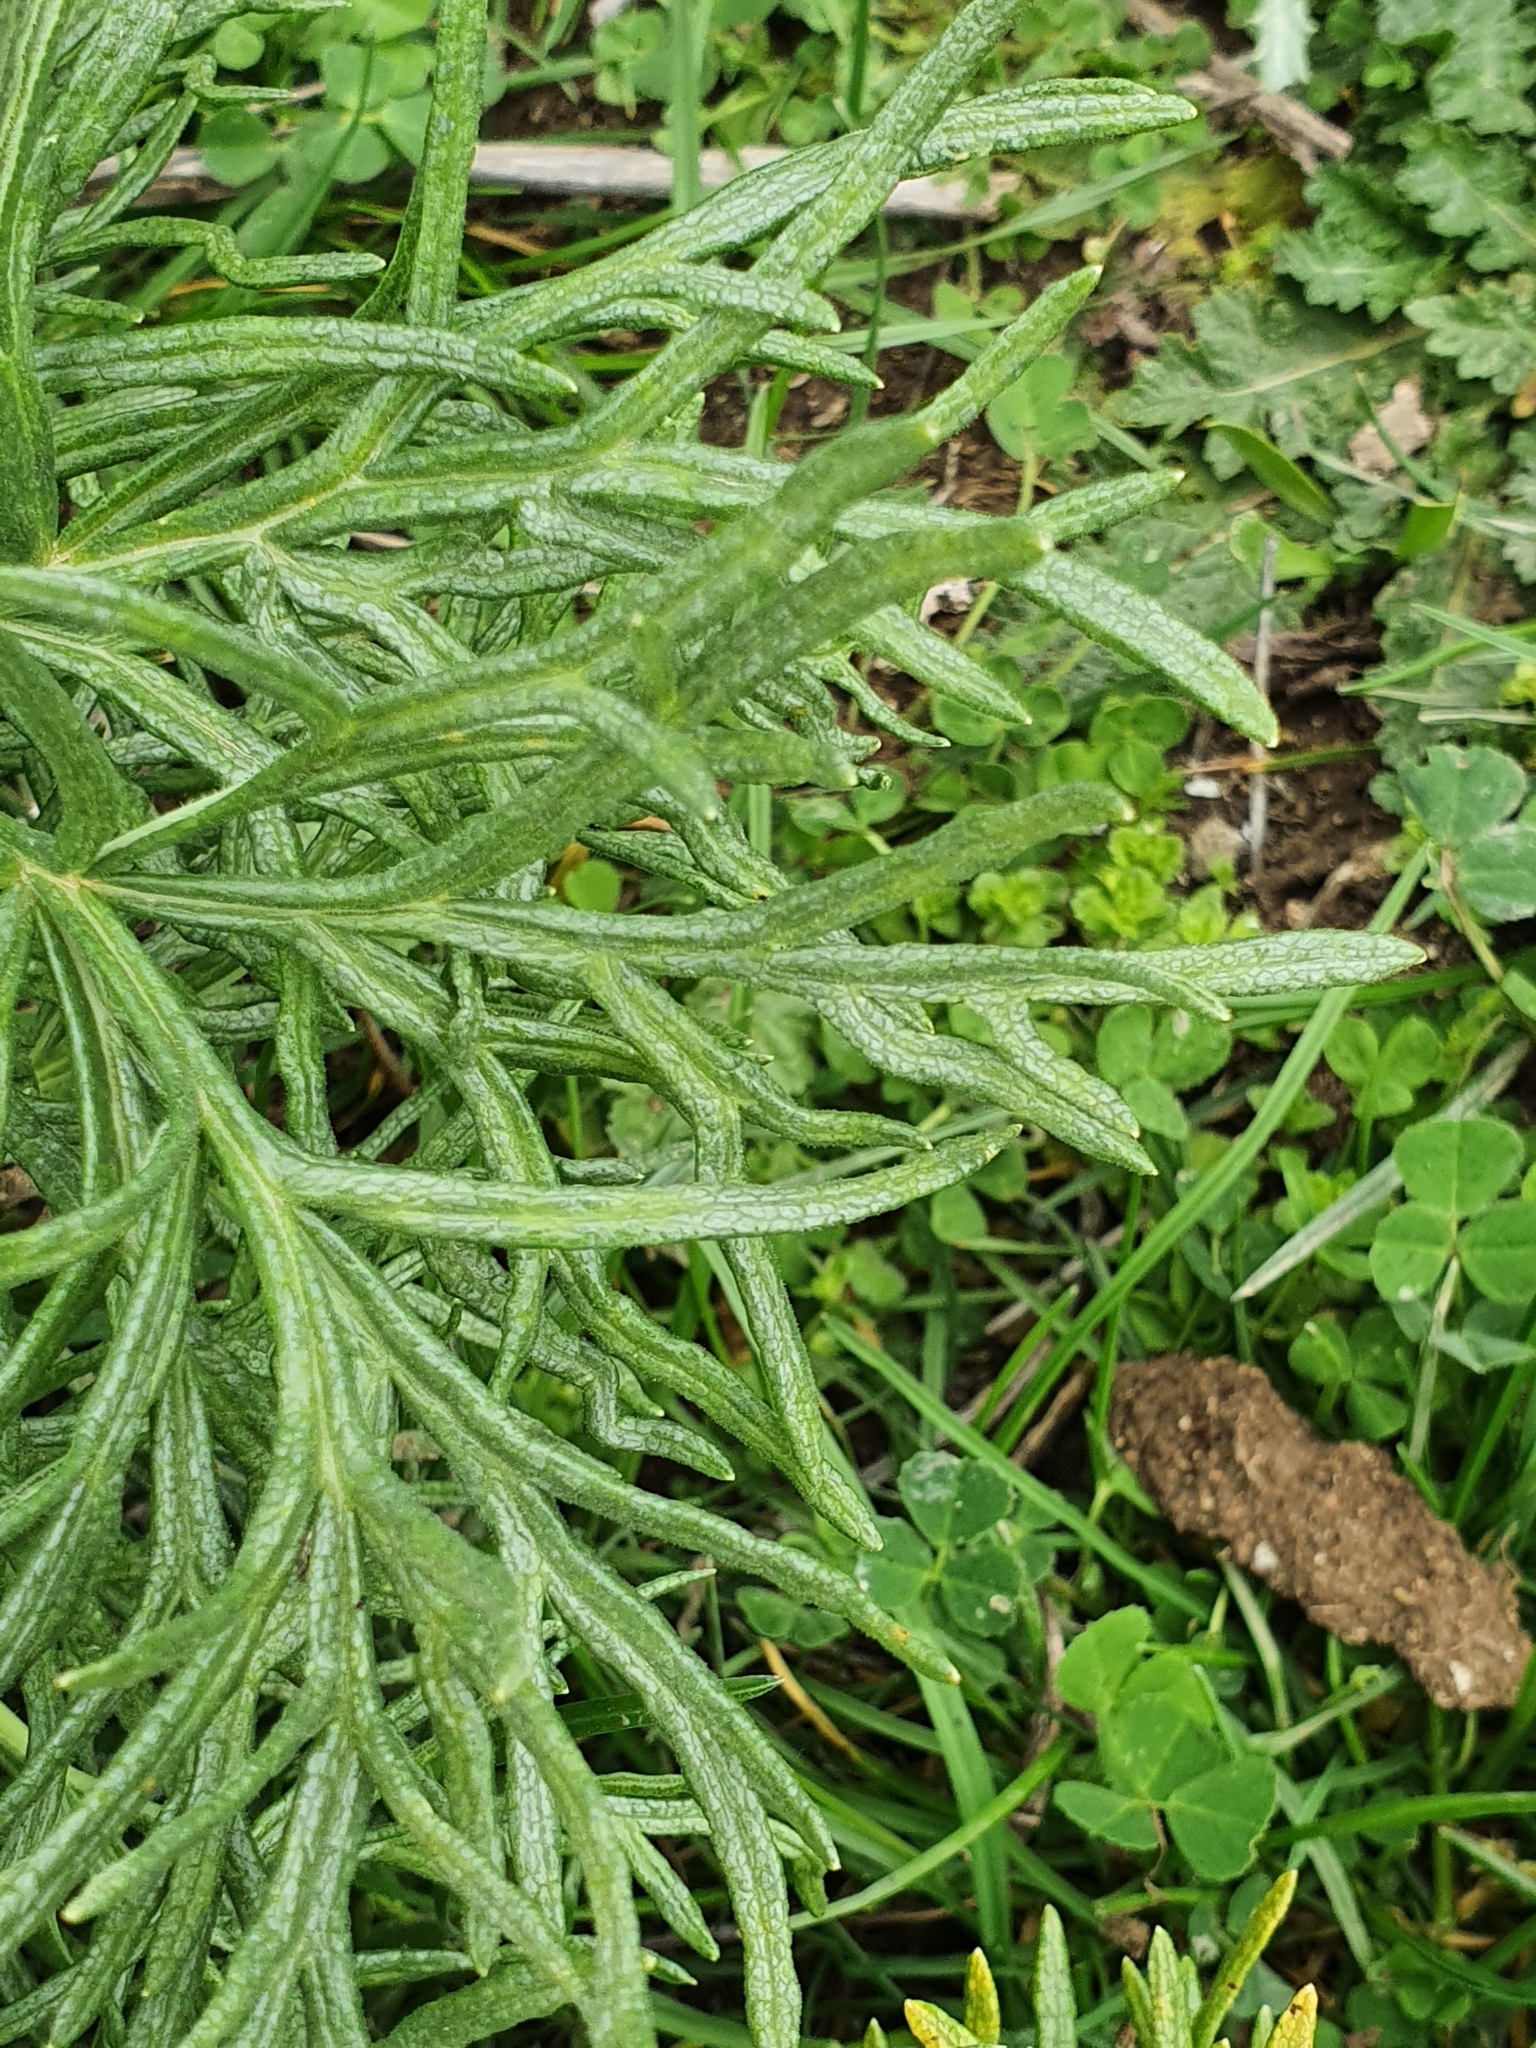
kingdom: Plantae
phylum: Tracheophyta
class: Magnoliopsida
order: Apiales
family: Apiaceae
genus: Thapsia
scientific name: Thapsia garganica
